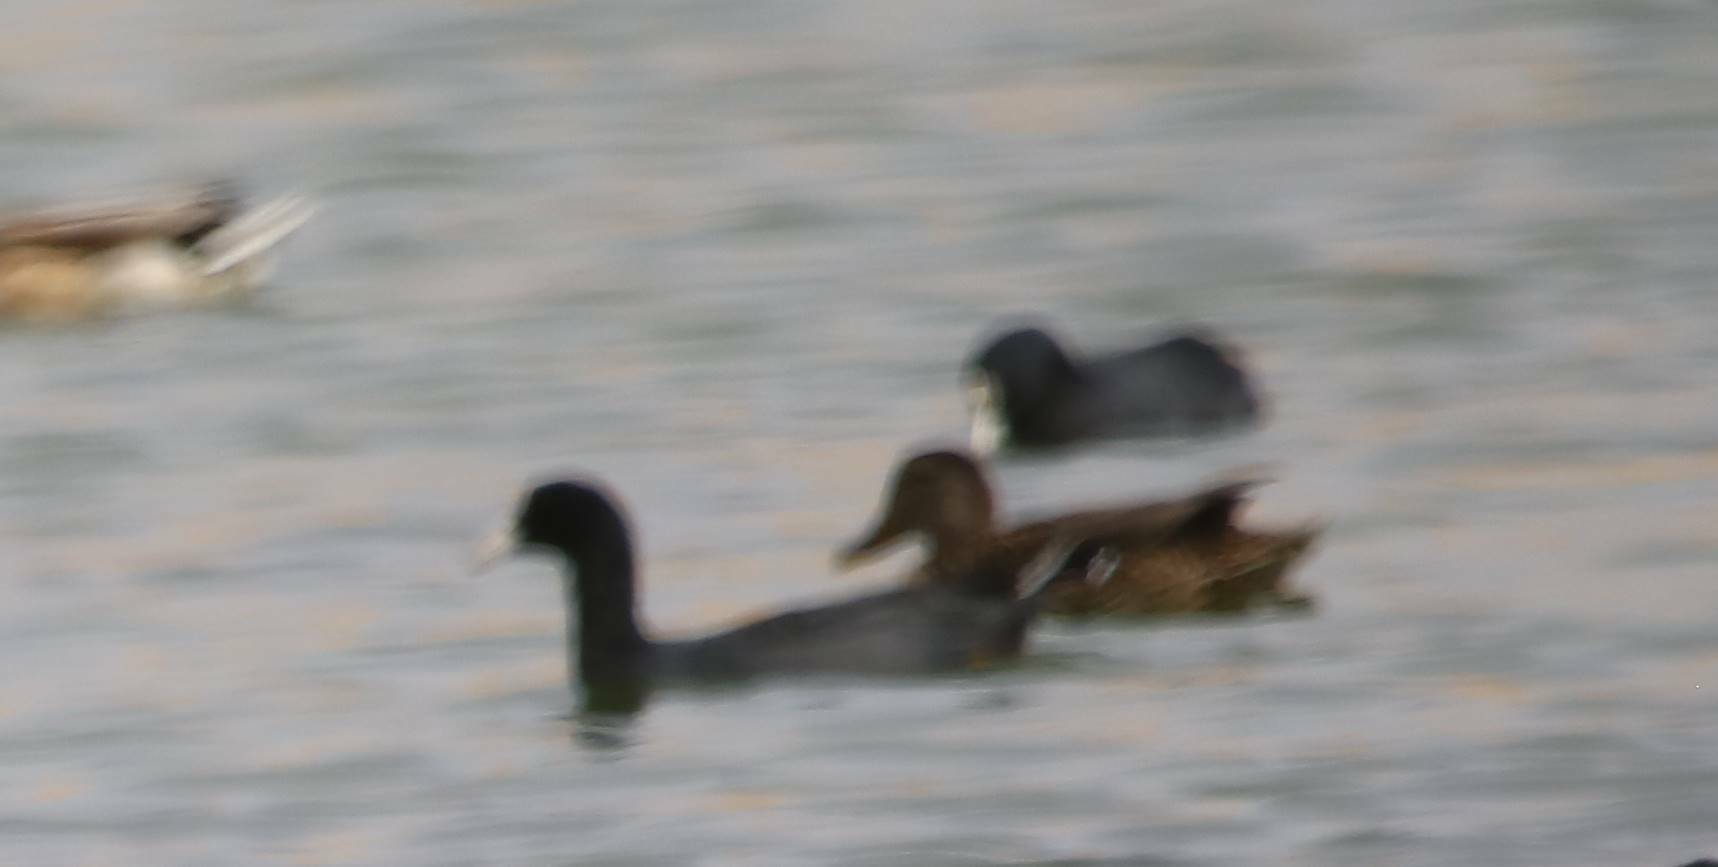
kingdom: Animalia
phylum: Chordata
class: Aves
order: Gruiformes
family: Rallidae
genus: Fulica
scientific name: Fulica atra
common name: Eurasian coot
